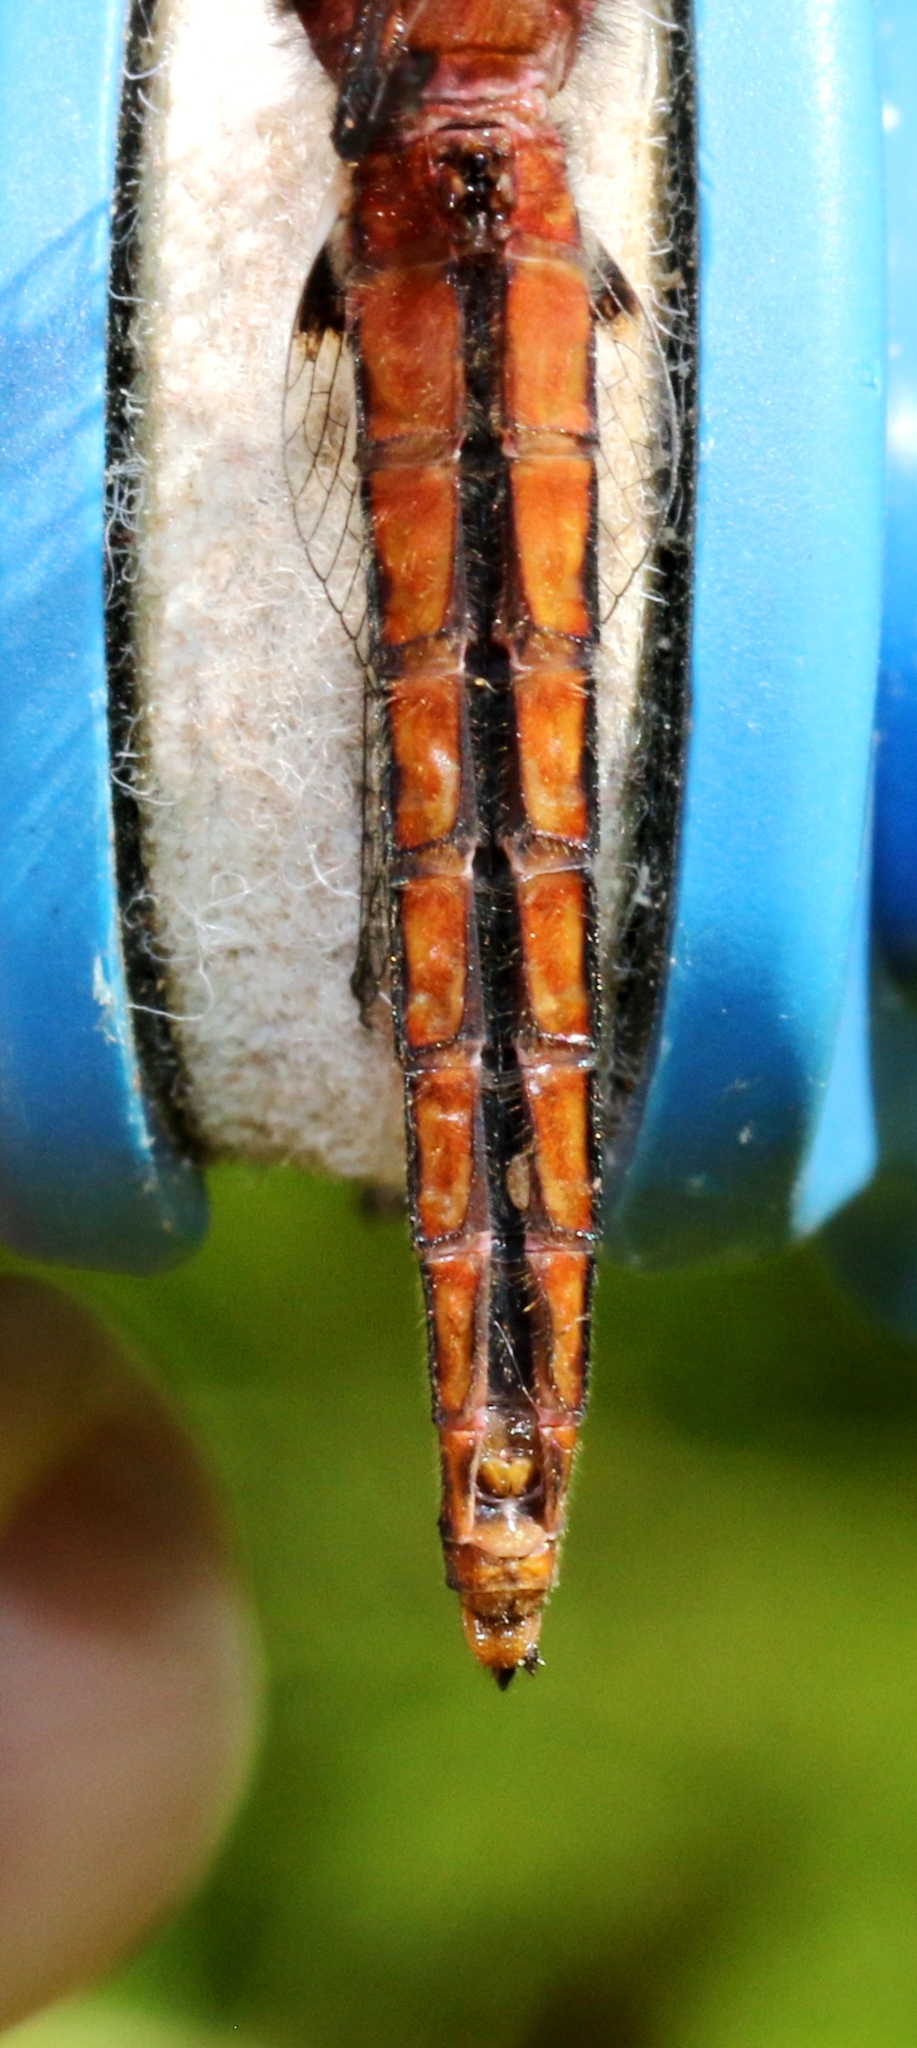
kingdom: Animalia
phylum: Arthropoda
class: Insecta
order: Odonata
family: Libellulidae
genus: Ladona
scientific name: Ladona julia
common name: Chalk-fronted corporal
